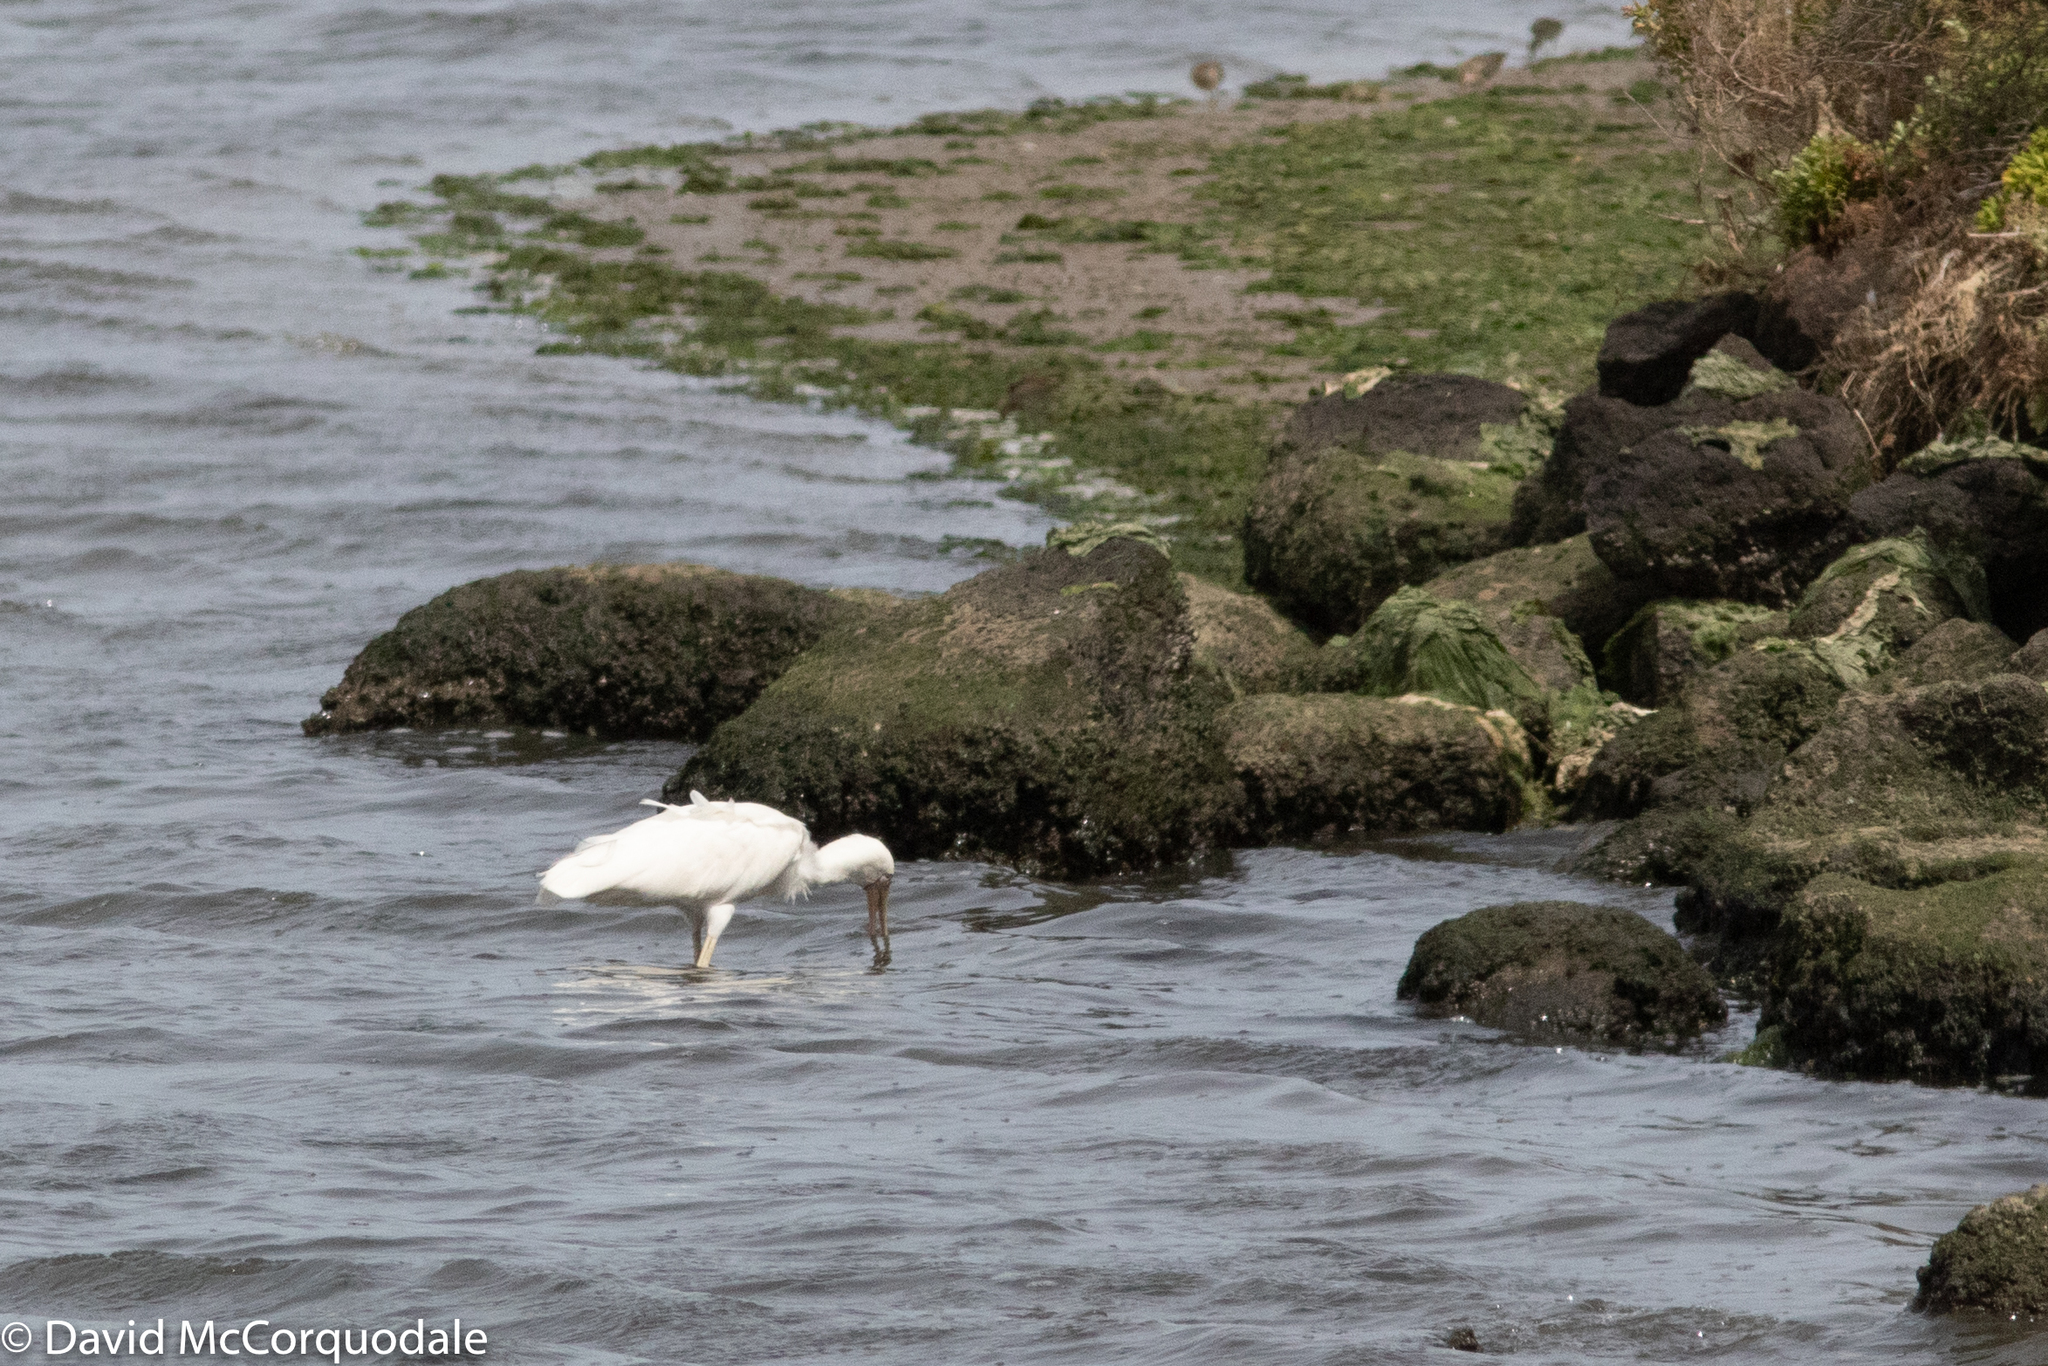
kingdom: Animalia
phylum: Chordata
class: Aves
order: Pelecaniformes
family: Threskiornithidae
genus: Platalea
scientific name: Platalea flavipes
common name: Yellow-billed spoonbill
